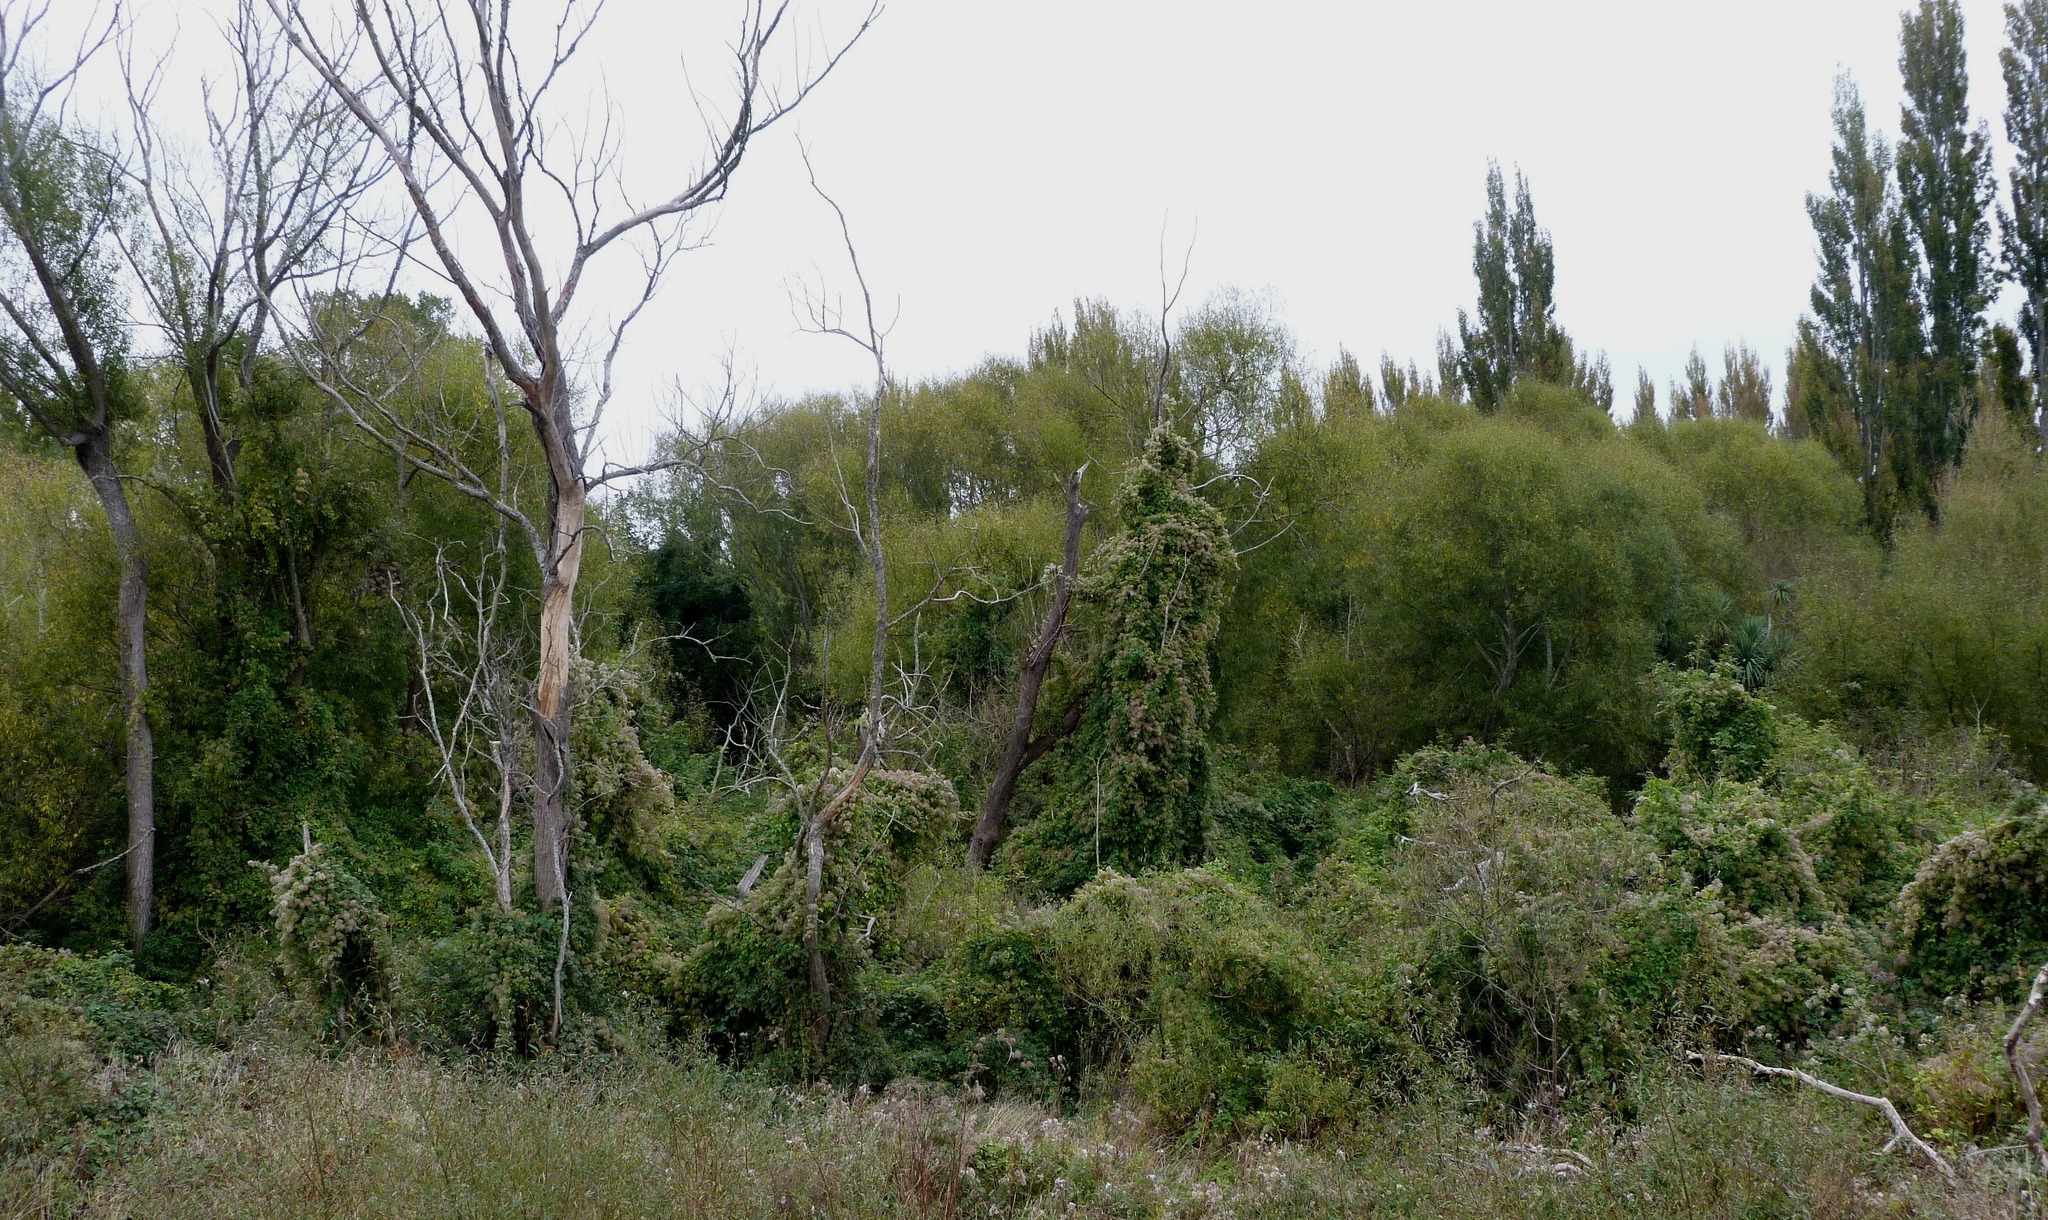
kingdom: Plantae
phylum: Tracheophyta
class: Magnoliopsida
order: Ranunculales
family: Ranunculaceae
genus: Clematis
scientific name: Clematis vitalba
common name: Evergreen clematis
